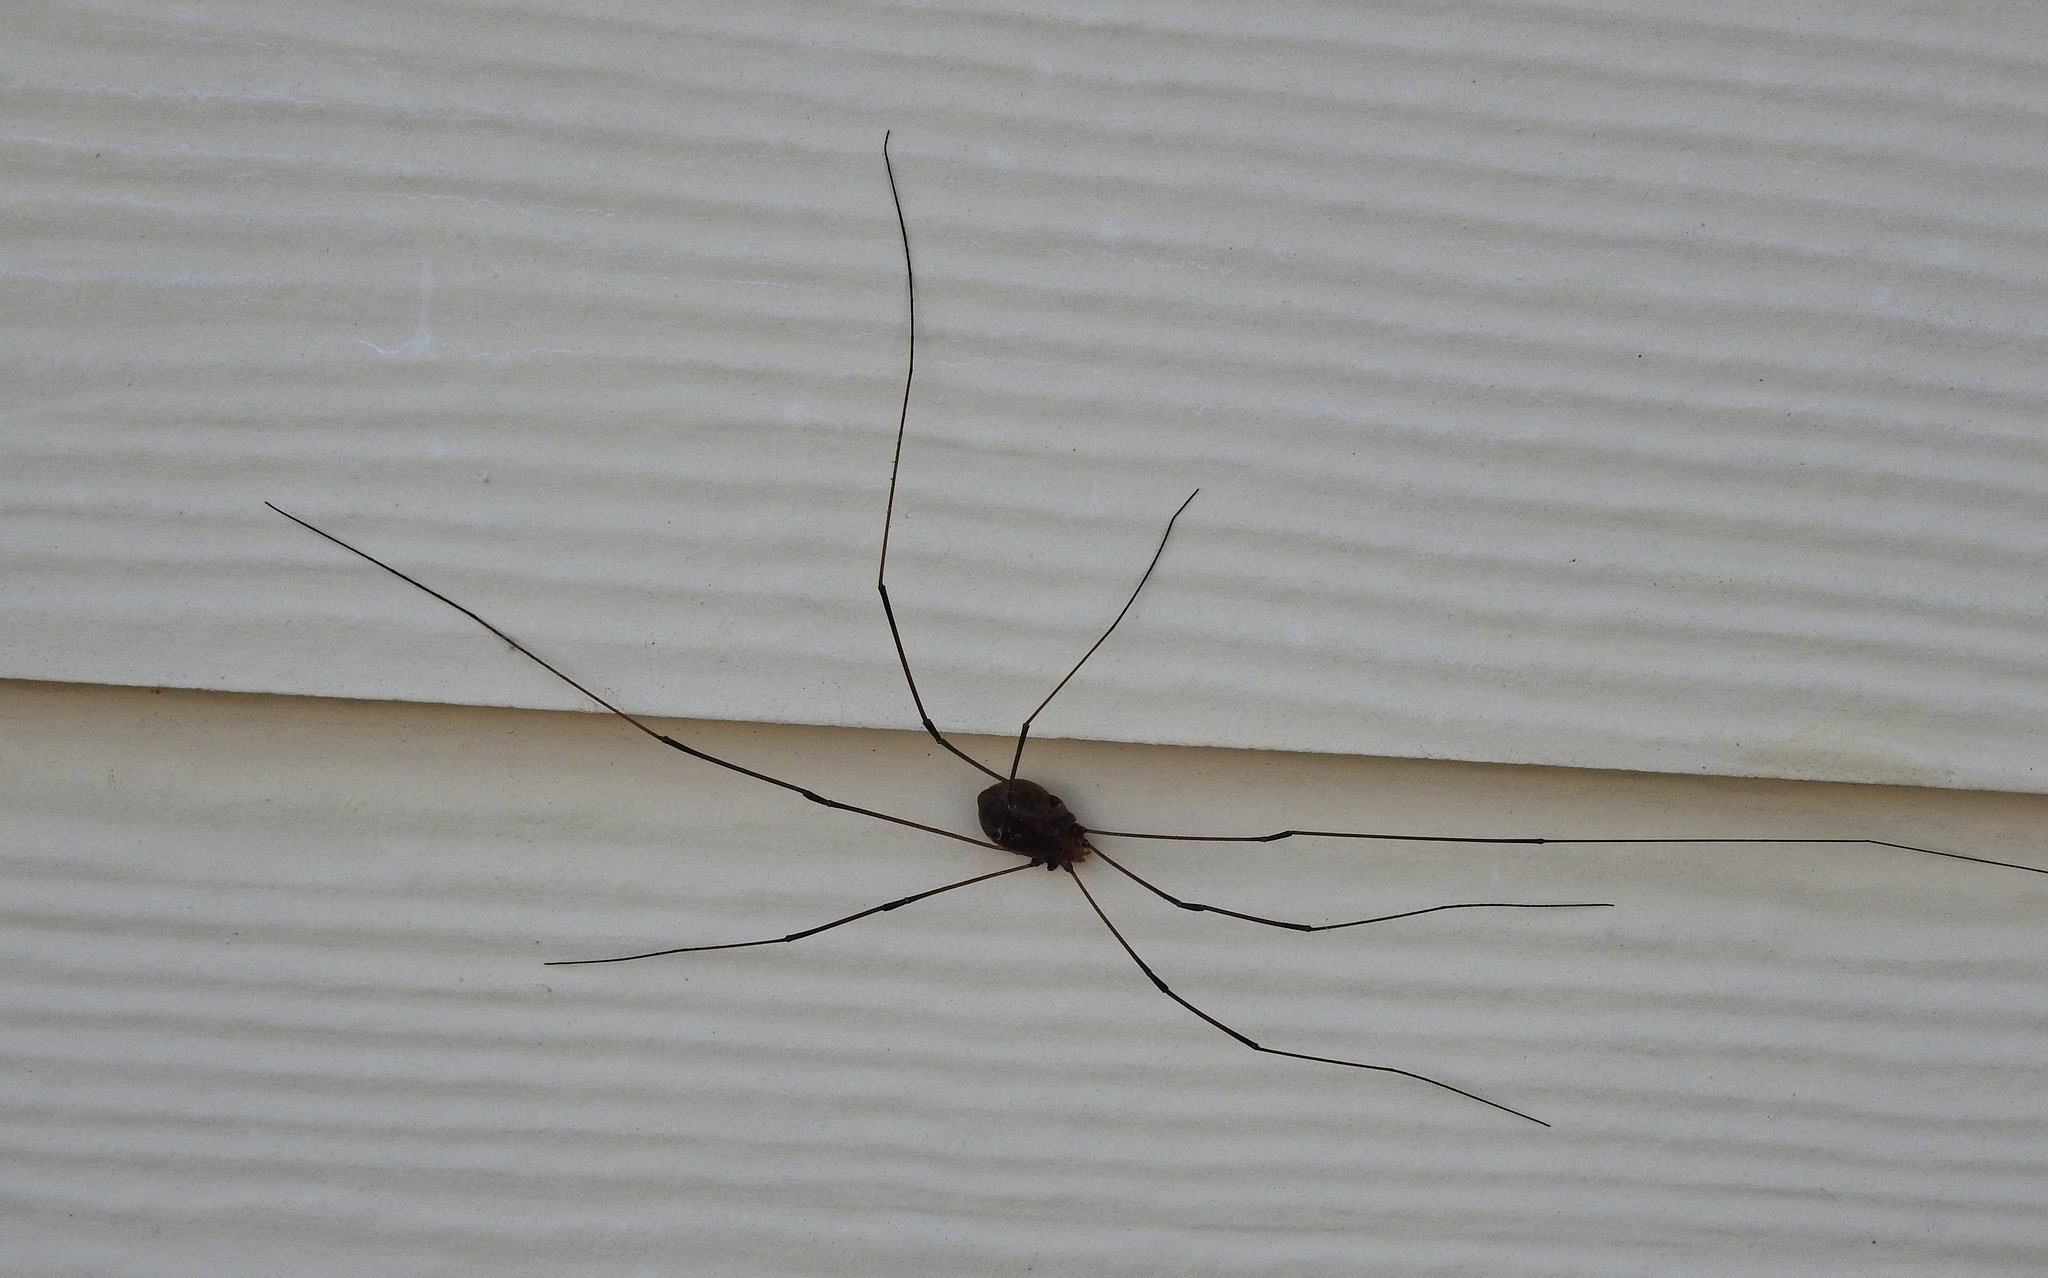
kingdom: Animalia
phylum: Arthropoda
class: Arachnida
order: Opiliones
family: Sclerosomatidae
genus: Leiobunum
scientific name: Leiobunum vittatum
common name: Eastern harvestman
